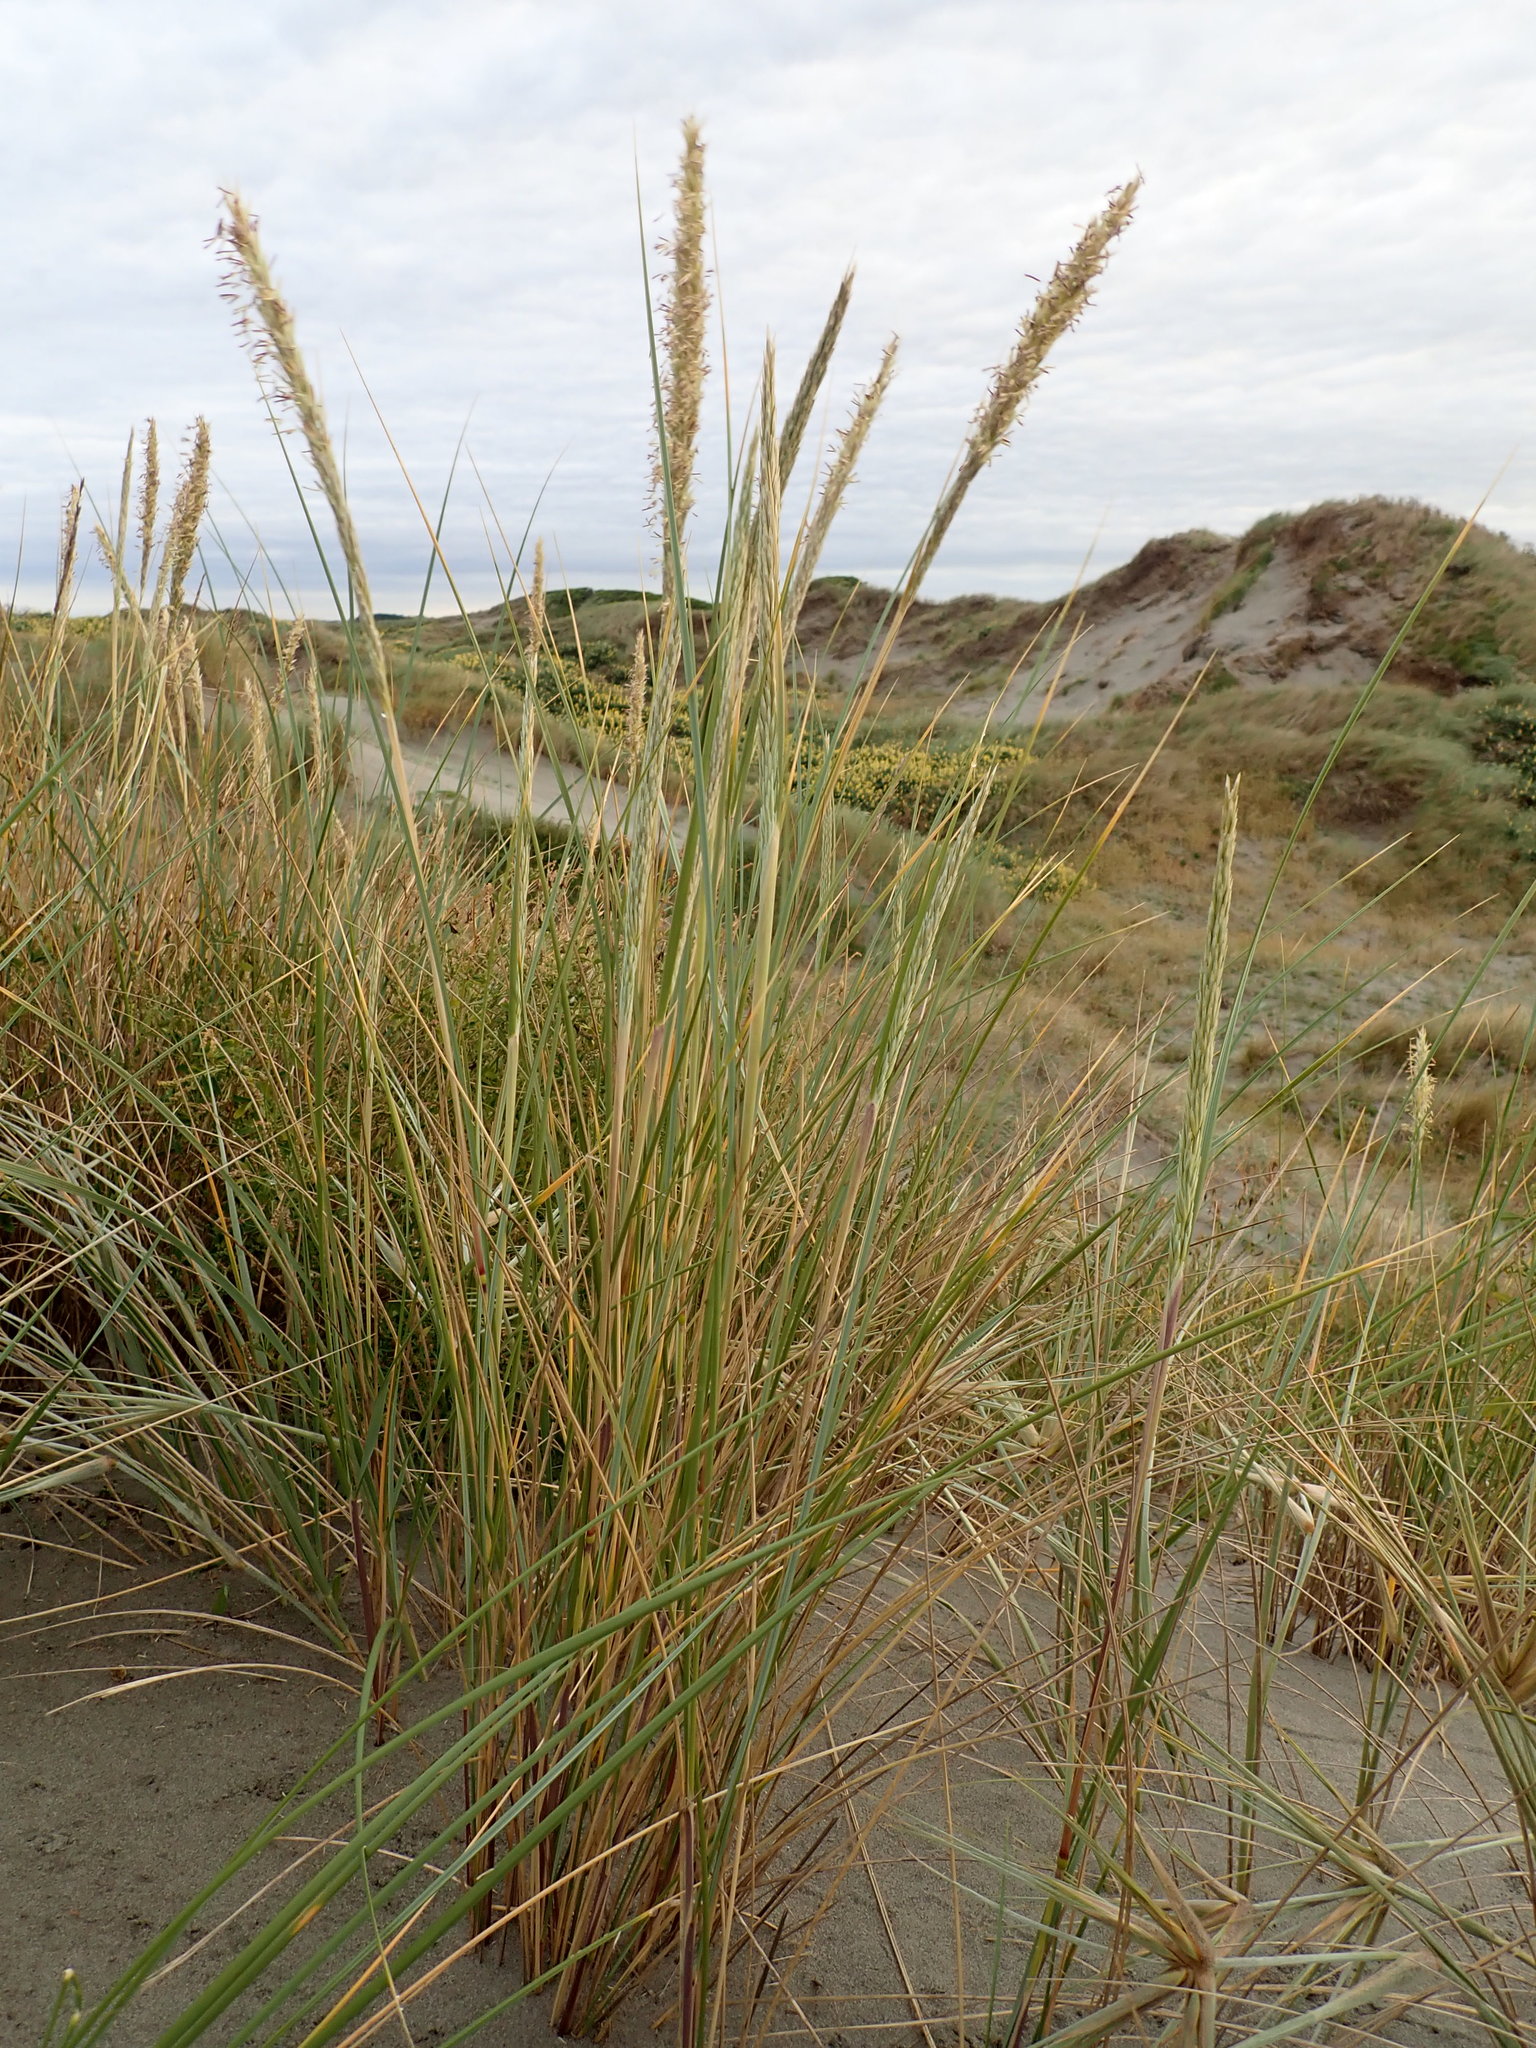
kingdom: Plantae
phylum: Tracheophyta
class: Liliopsida
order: Poales
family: Poaceae
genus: Calamagrostis
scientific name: Calamagrostis arenaria
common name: European beachgrass
